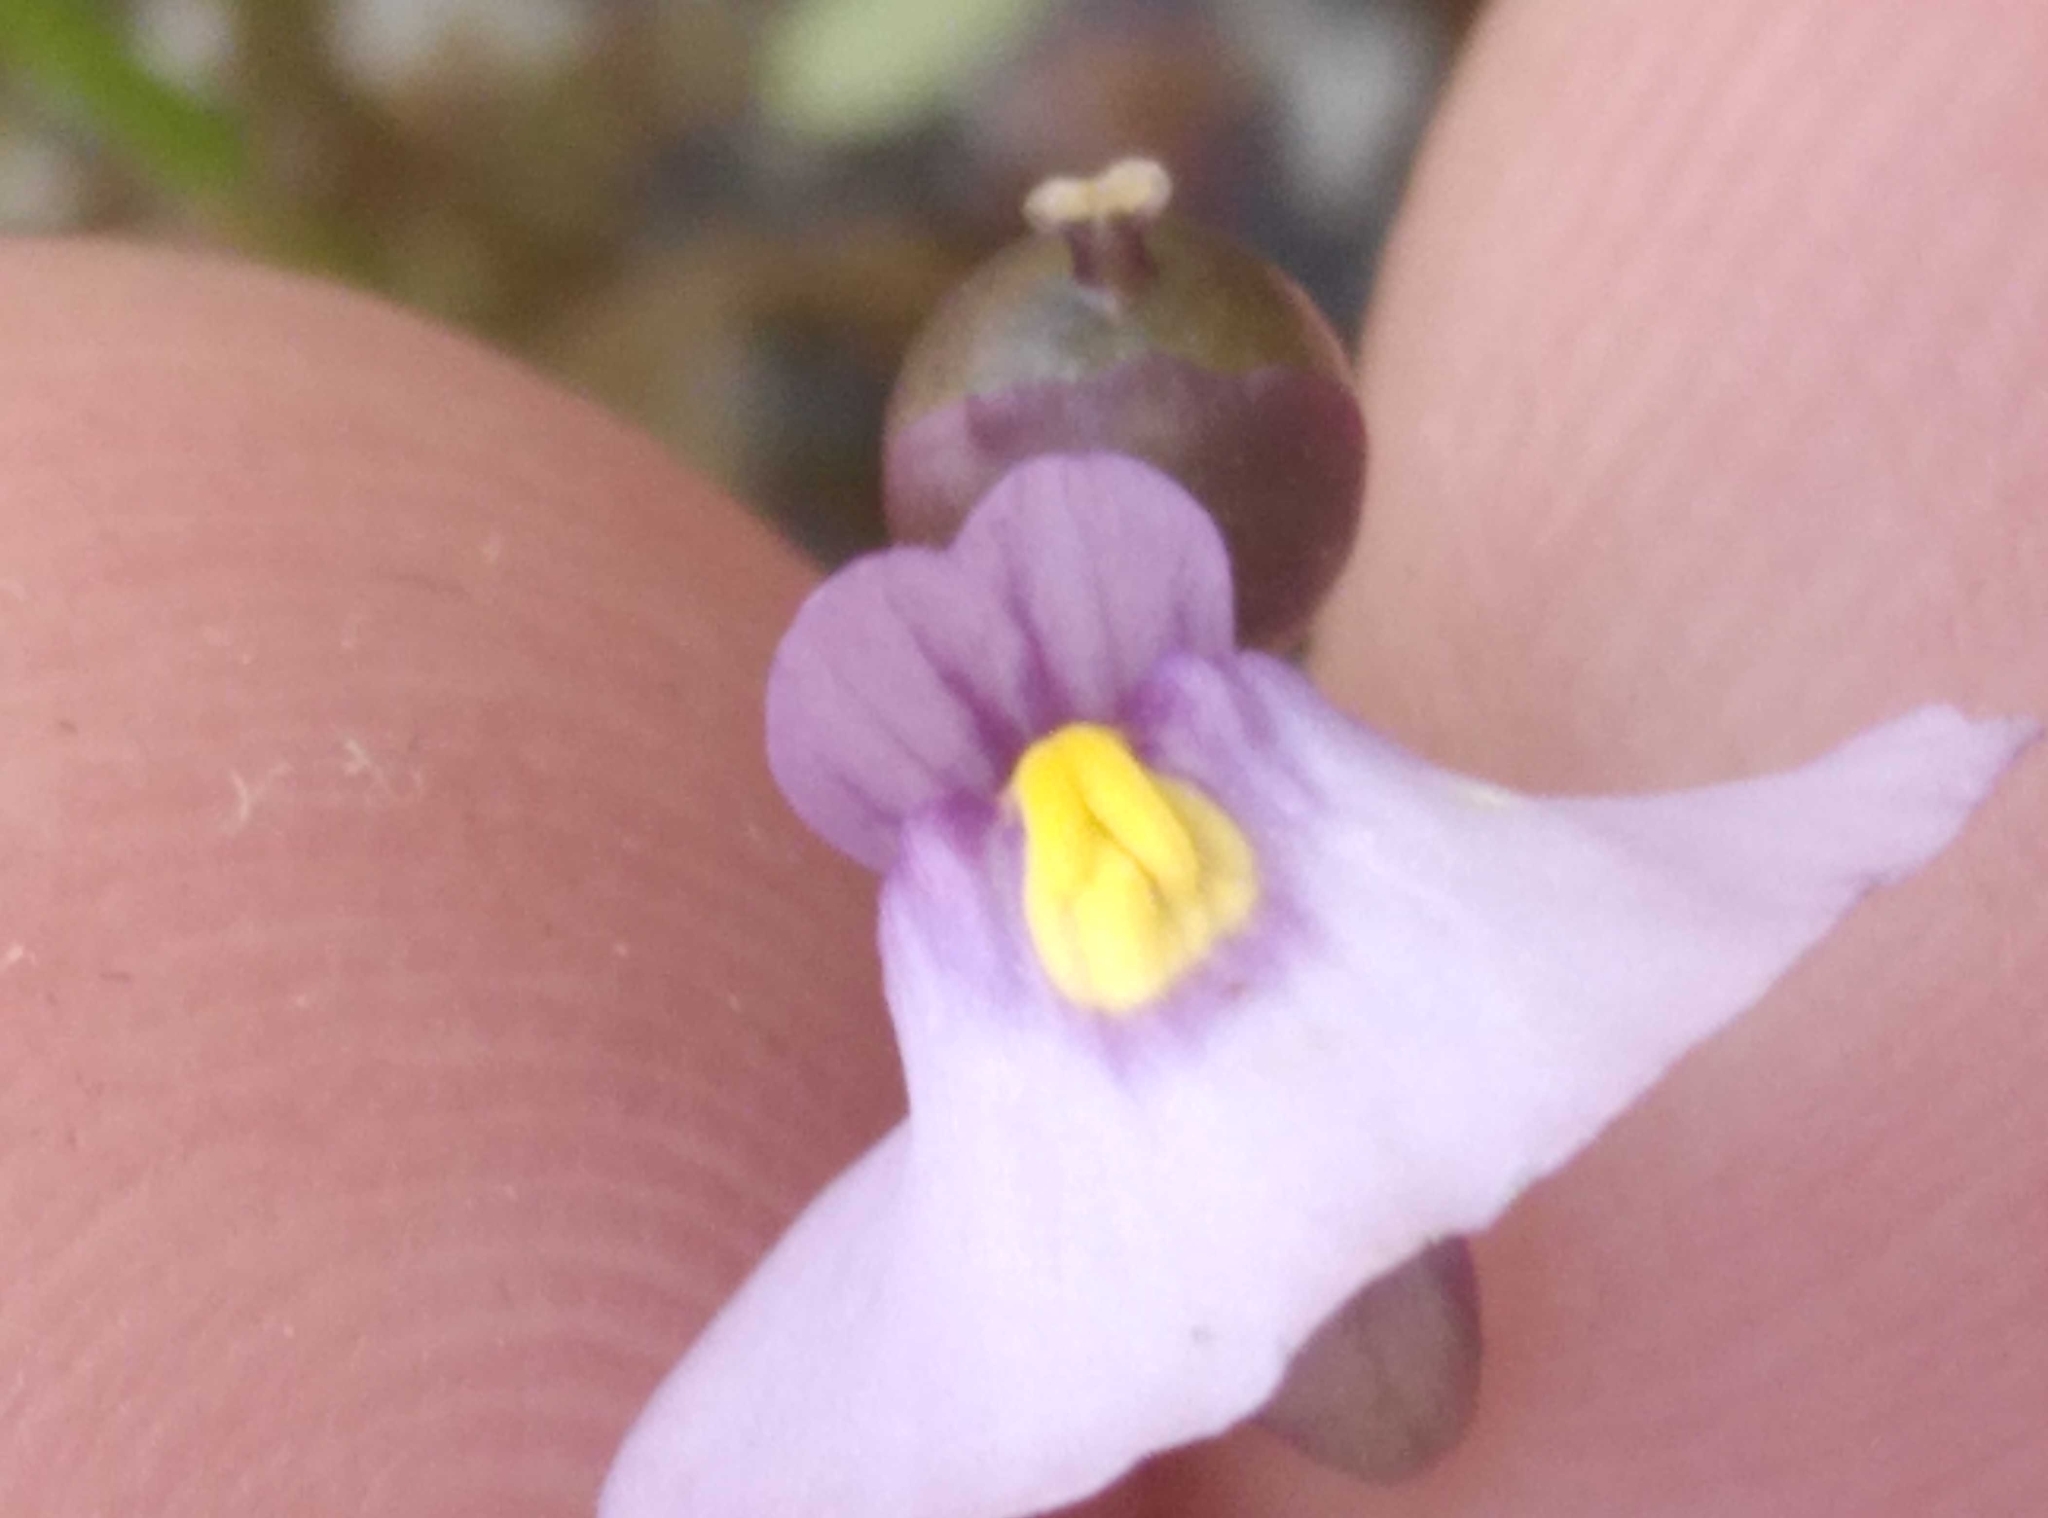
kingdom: Plantae
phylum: Tracheophyta
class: Magnoliopsida
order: Lamiales
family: Lentibulariaceae
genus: Utricularia
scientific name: Utricularia dichotoma
